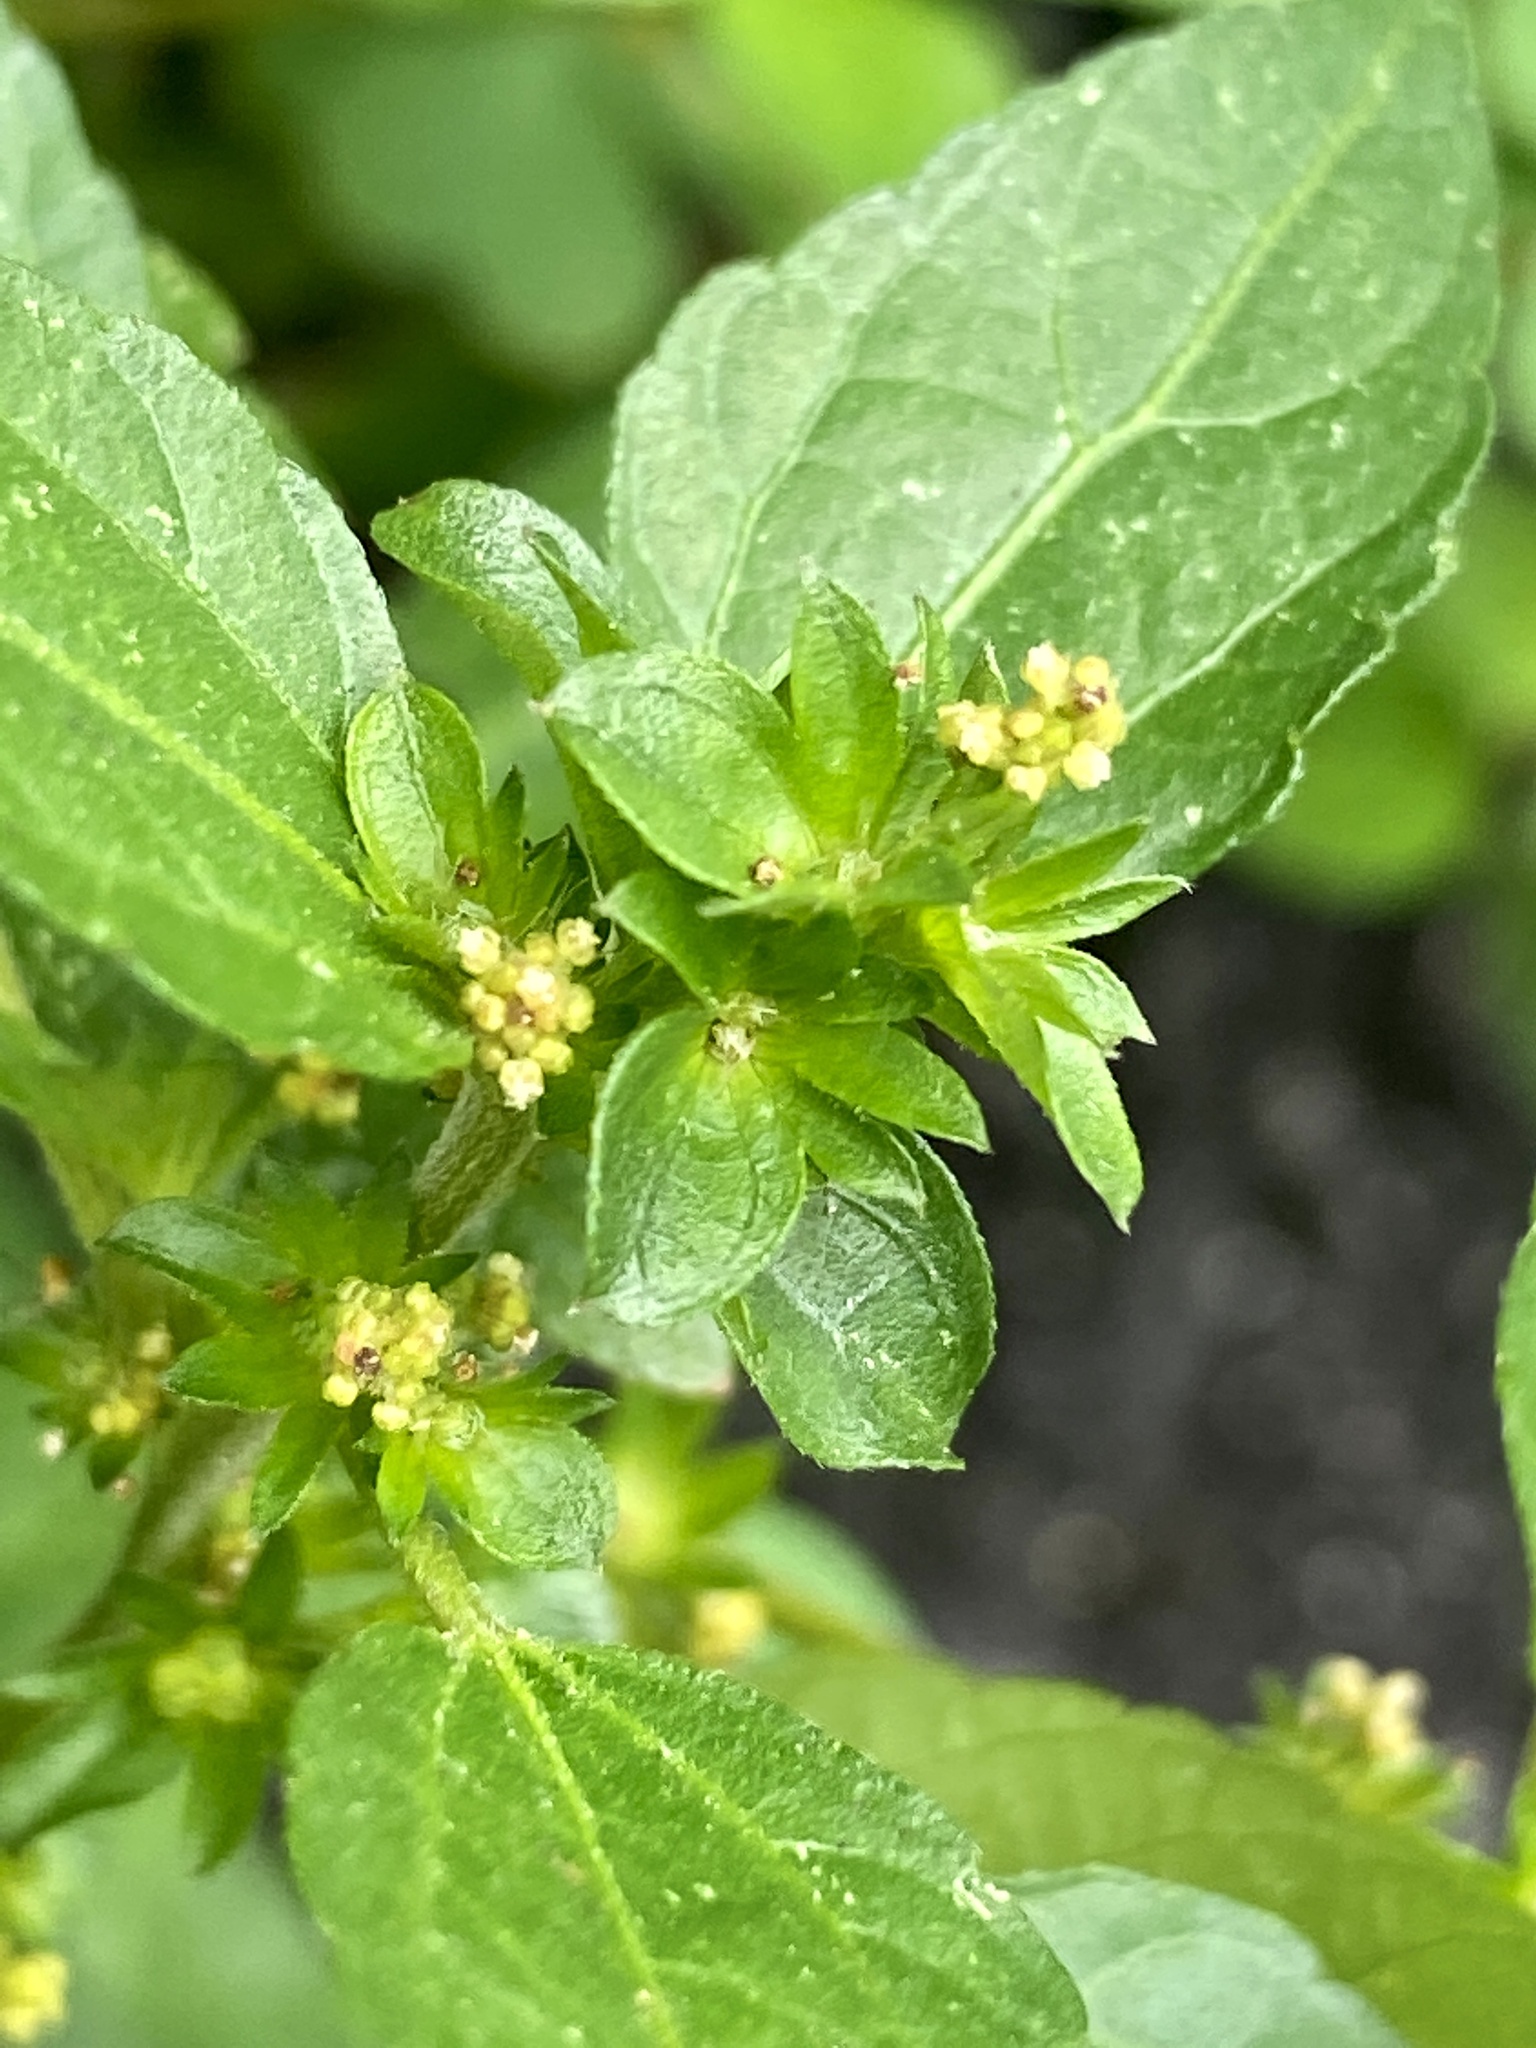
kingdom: Plantae
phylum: Tracheophyta
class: Magnoliopsida
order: Malpighiales
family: Euphorbiaceae
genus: Acalypha
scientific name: Acalypha rhomboidea
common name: Rhombic copperleaf
